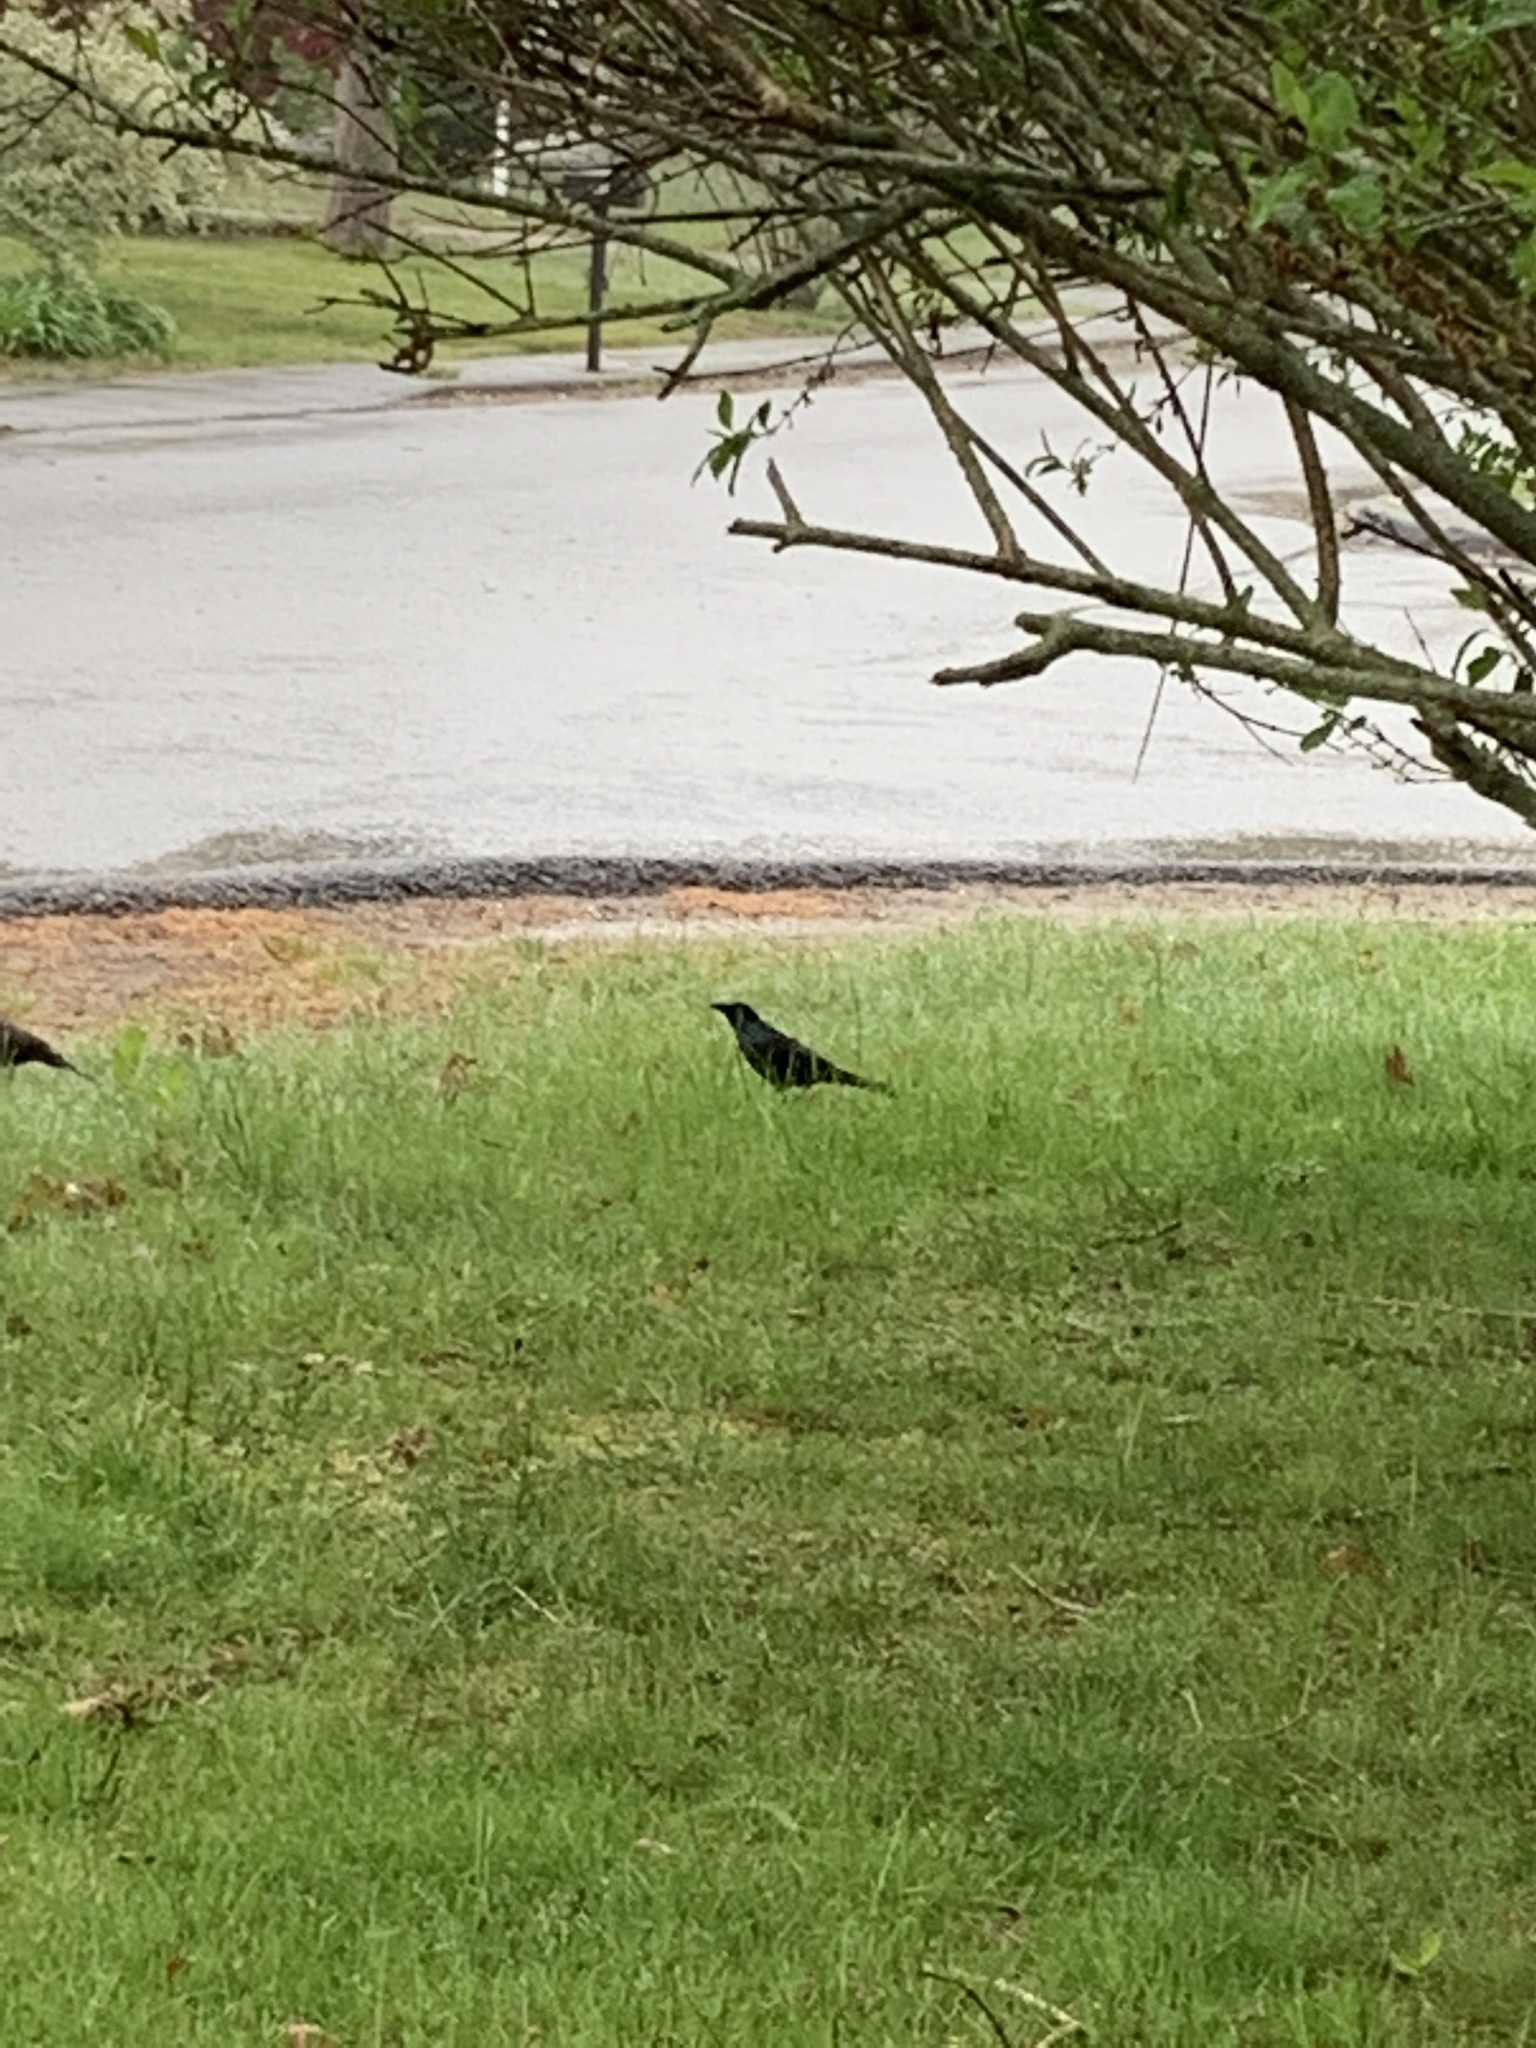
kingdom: Animalia
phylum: Chordata
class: Aves
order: Passeriformes
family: Icteridae
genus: Quiscalus
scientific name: Quiscalus quiscula
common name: Common grackle
